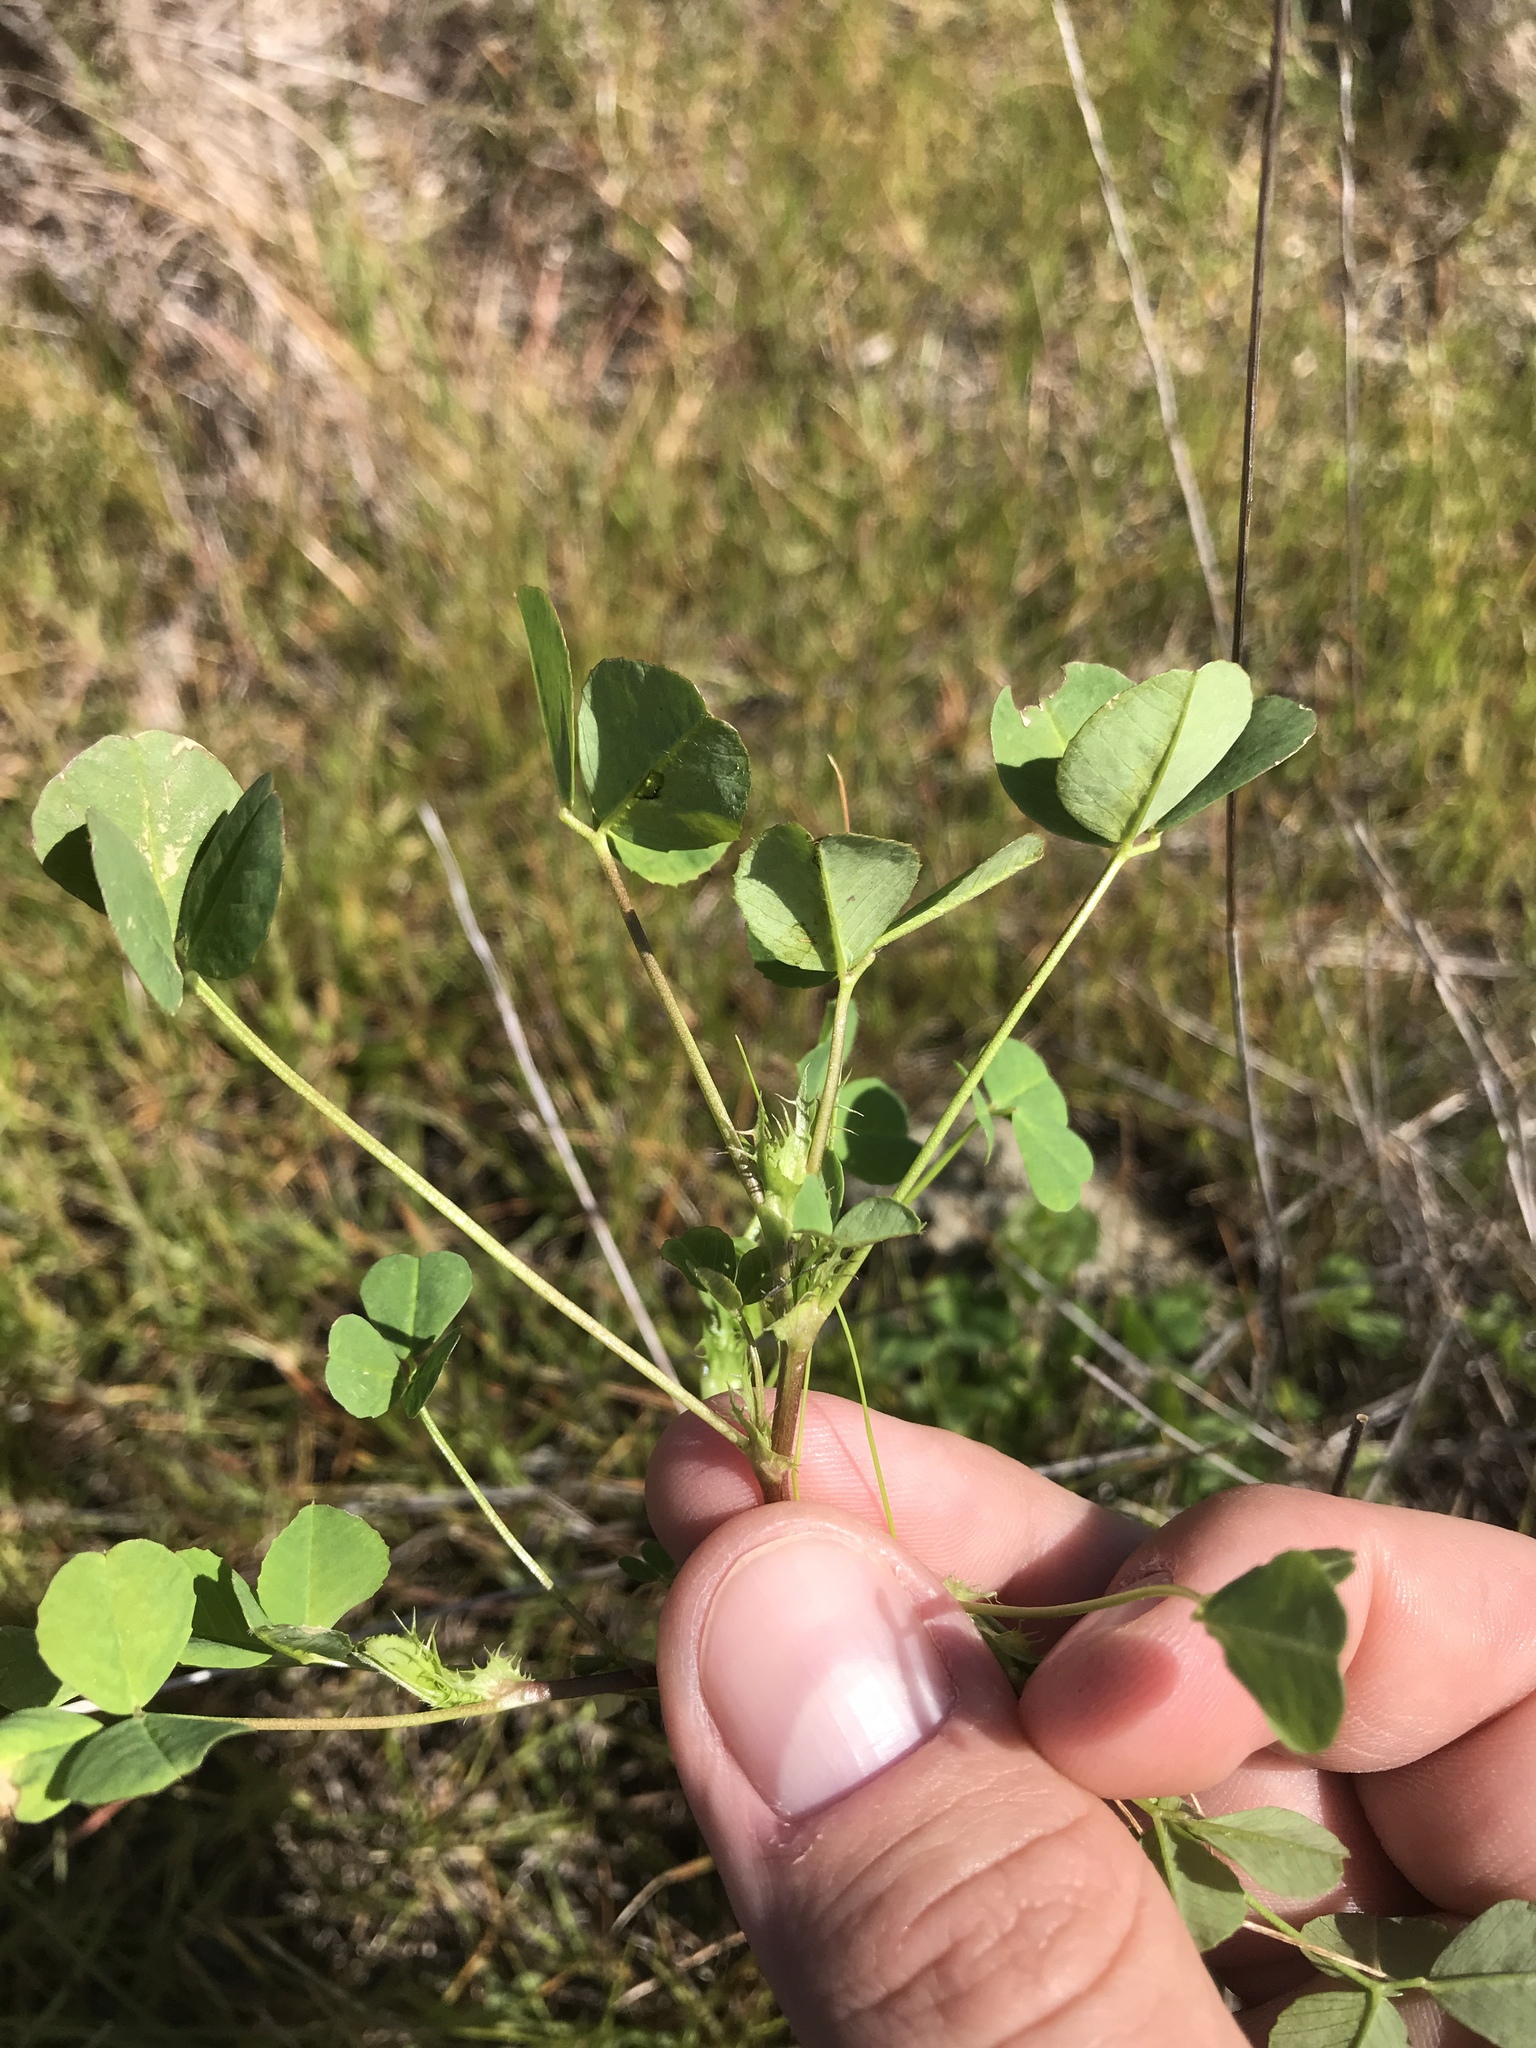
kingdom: Plantae
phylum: Tracheophyta
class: Magnoliopsida
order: Fabales
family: Fabaceae
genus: Medicago
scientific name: Medicago polymorpha
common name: Burclover
